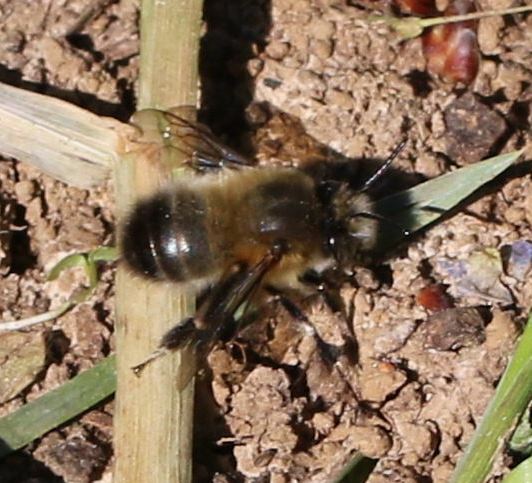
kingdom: Animalia
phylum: Arthropoda
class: Insecta
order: Hymenoptera
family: Apidae
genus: Anthophora
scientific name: Anthophora plumipes
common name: Hairy-footed flower bee
